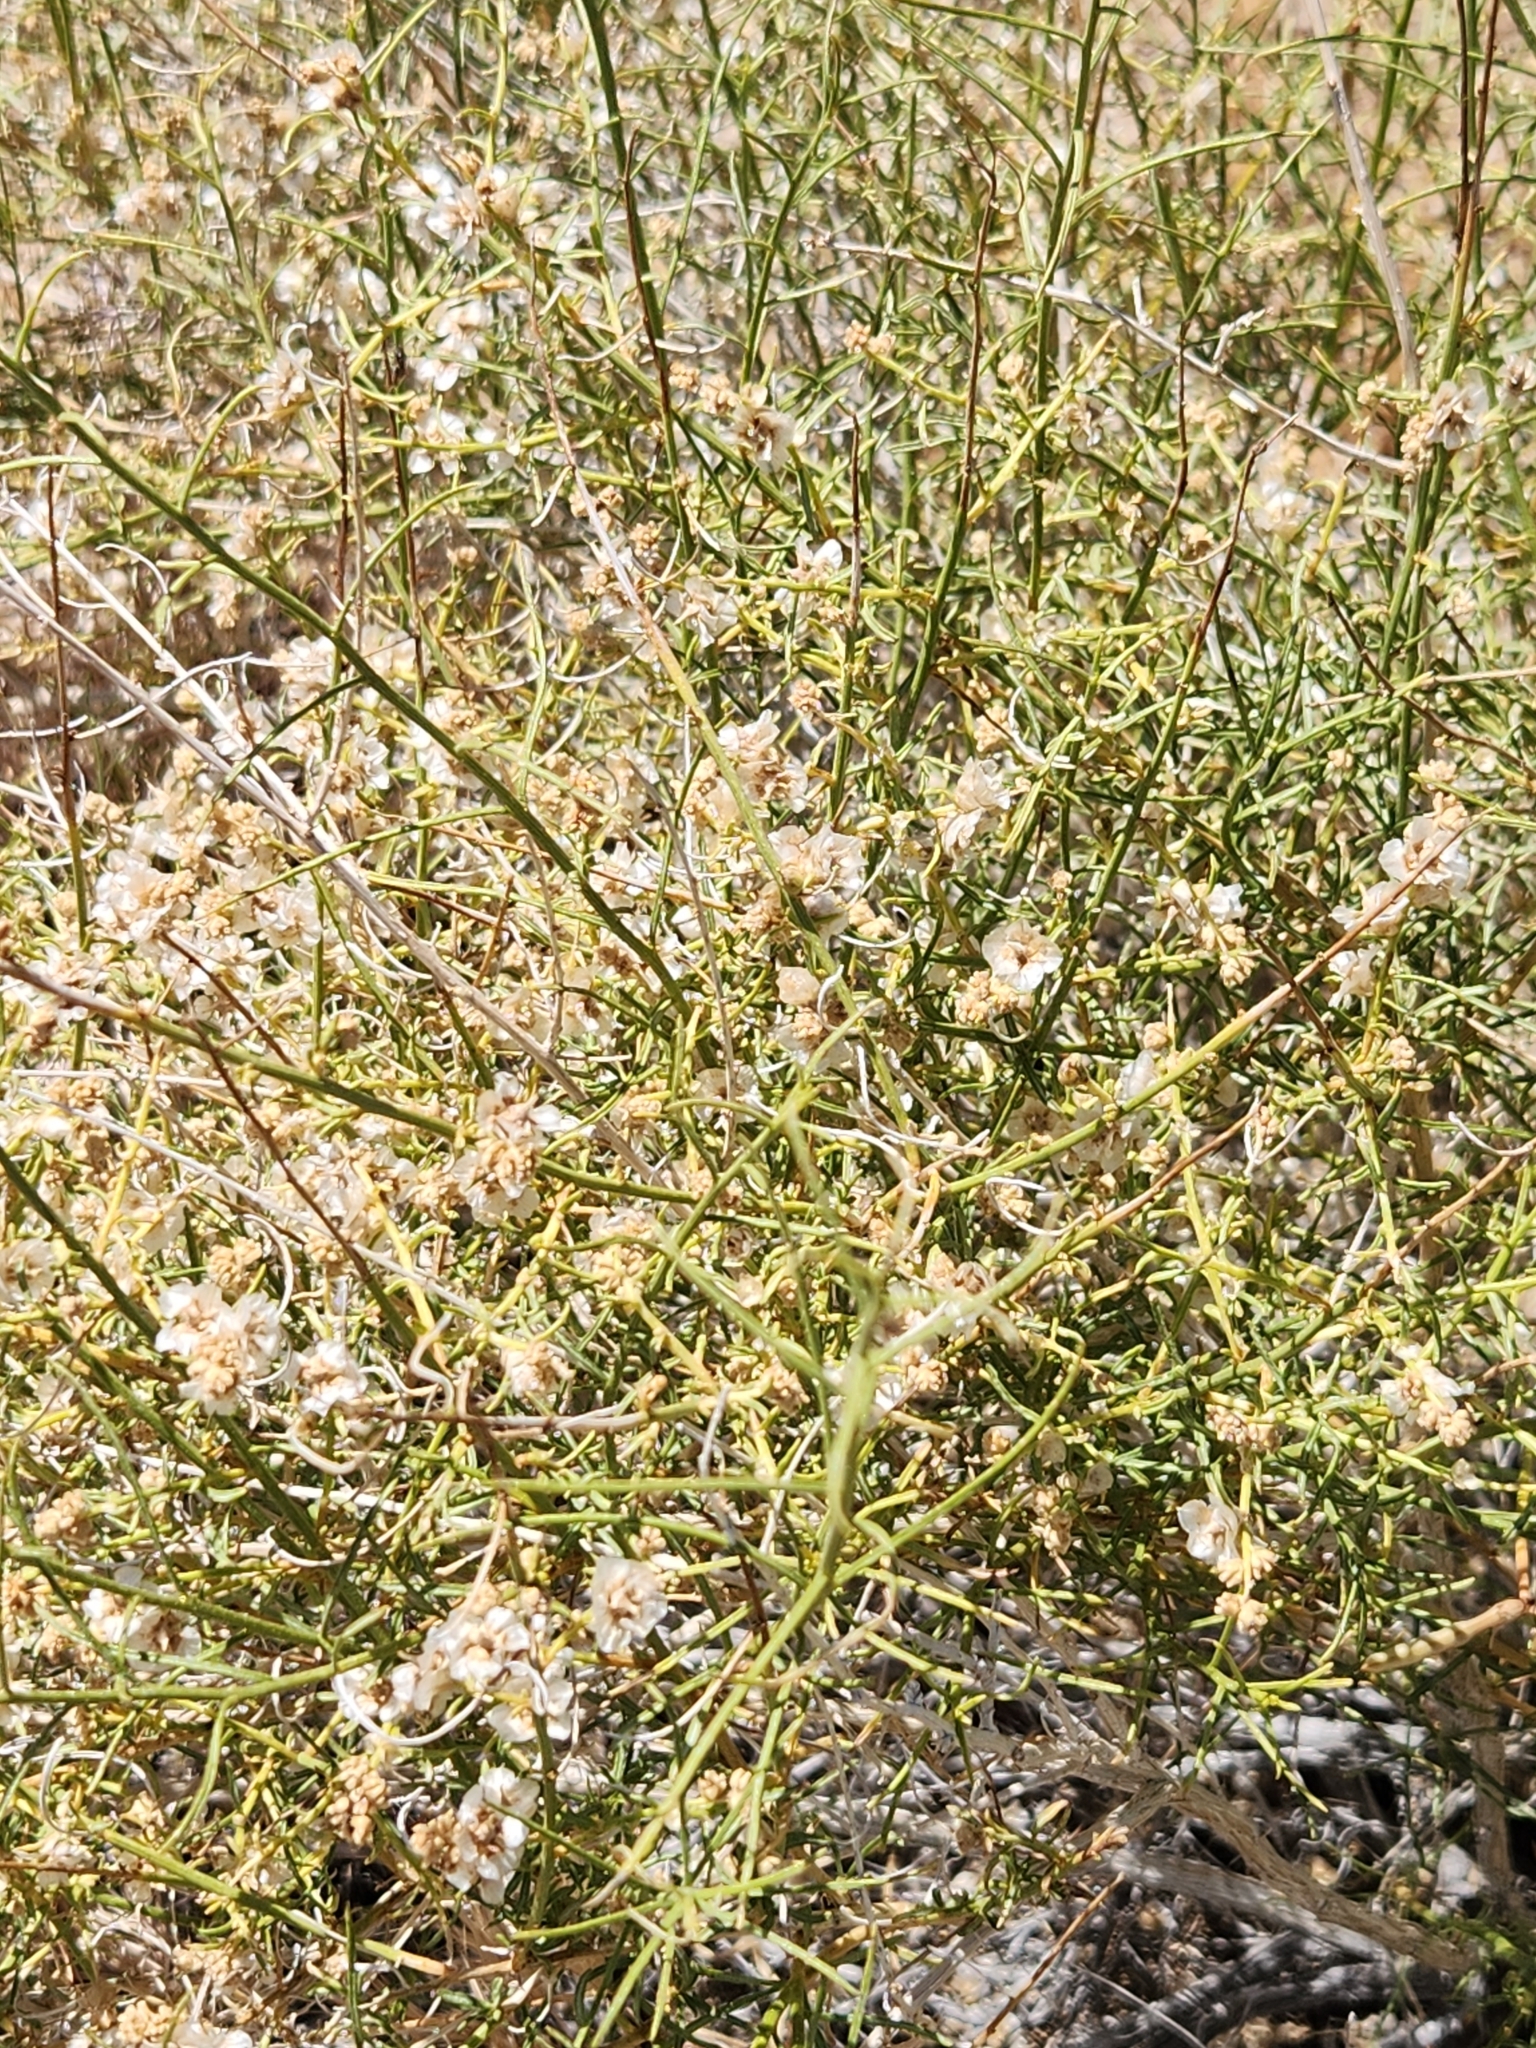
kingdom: Plantae
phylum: Tracheophyta
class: Magnoliopsida
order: Asterales
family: Asteraceae
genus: Ambrosia
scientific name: Ambrosia salsola
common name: Burrobrush
